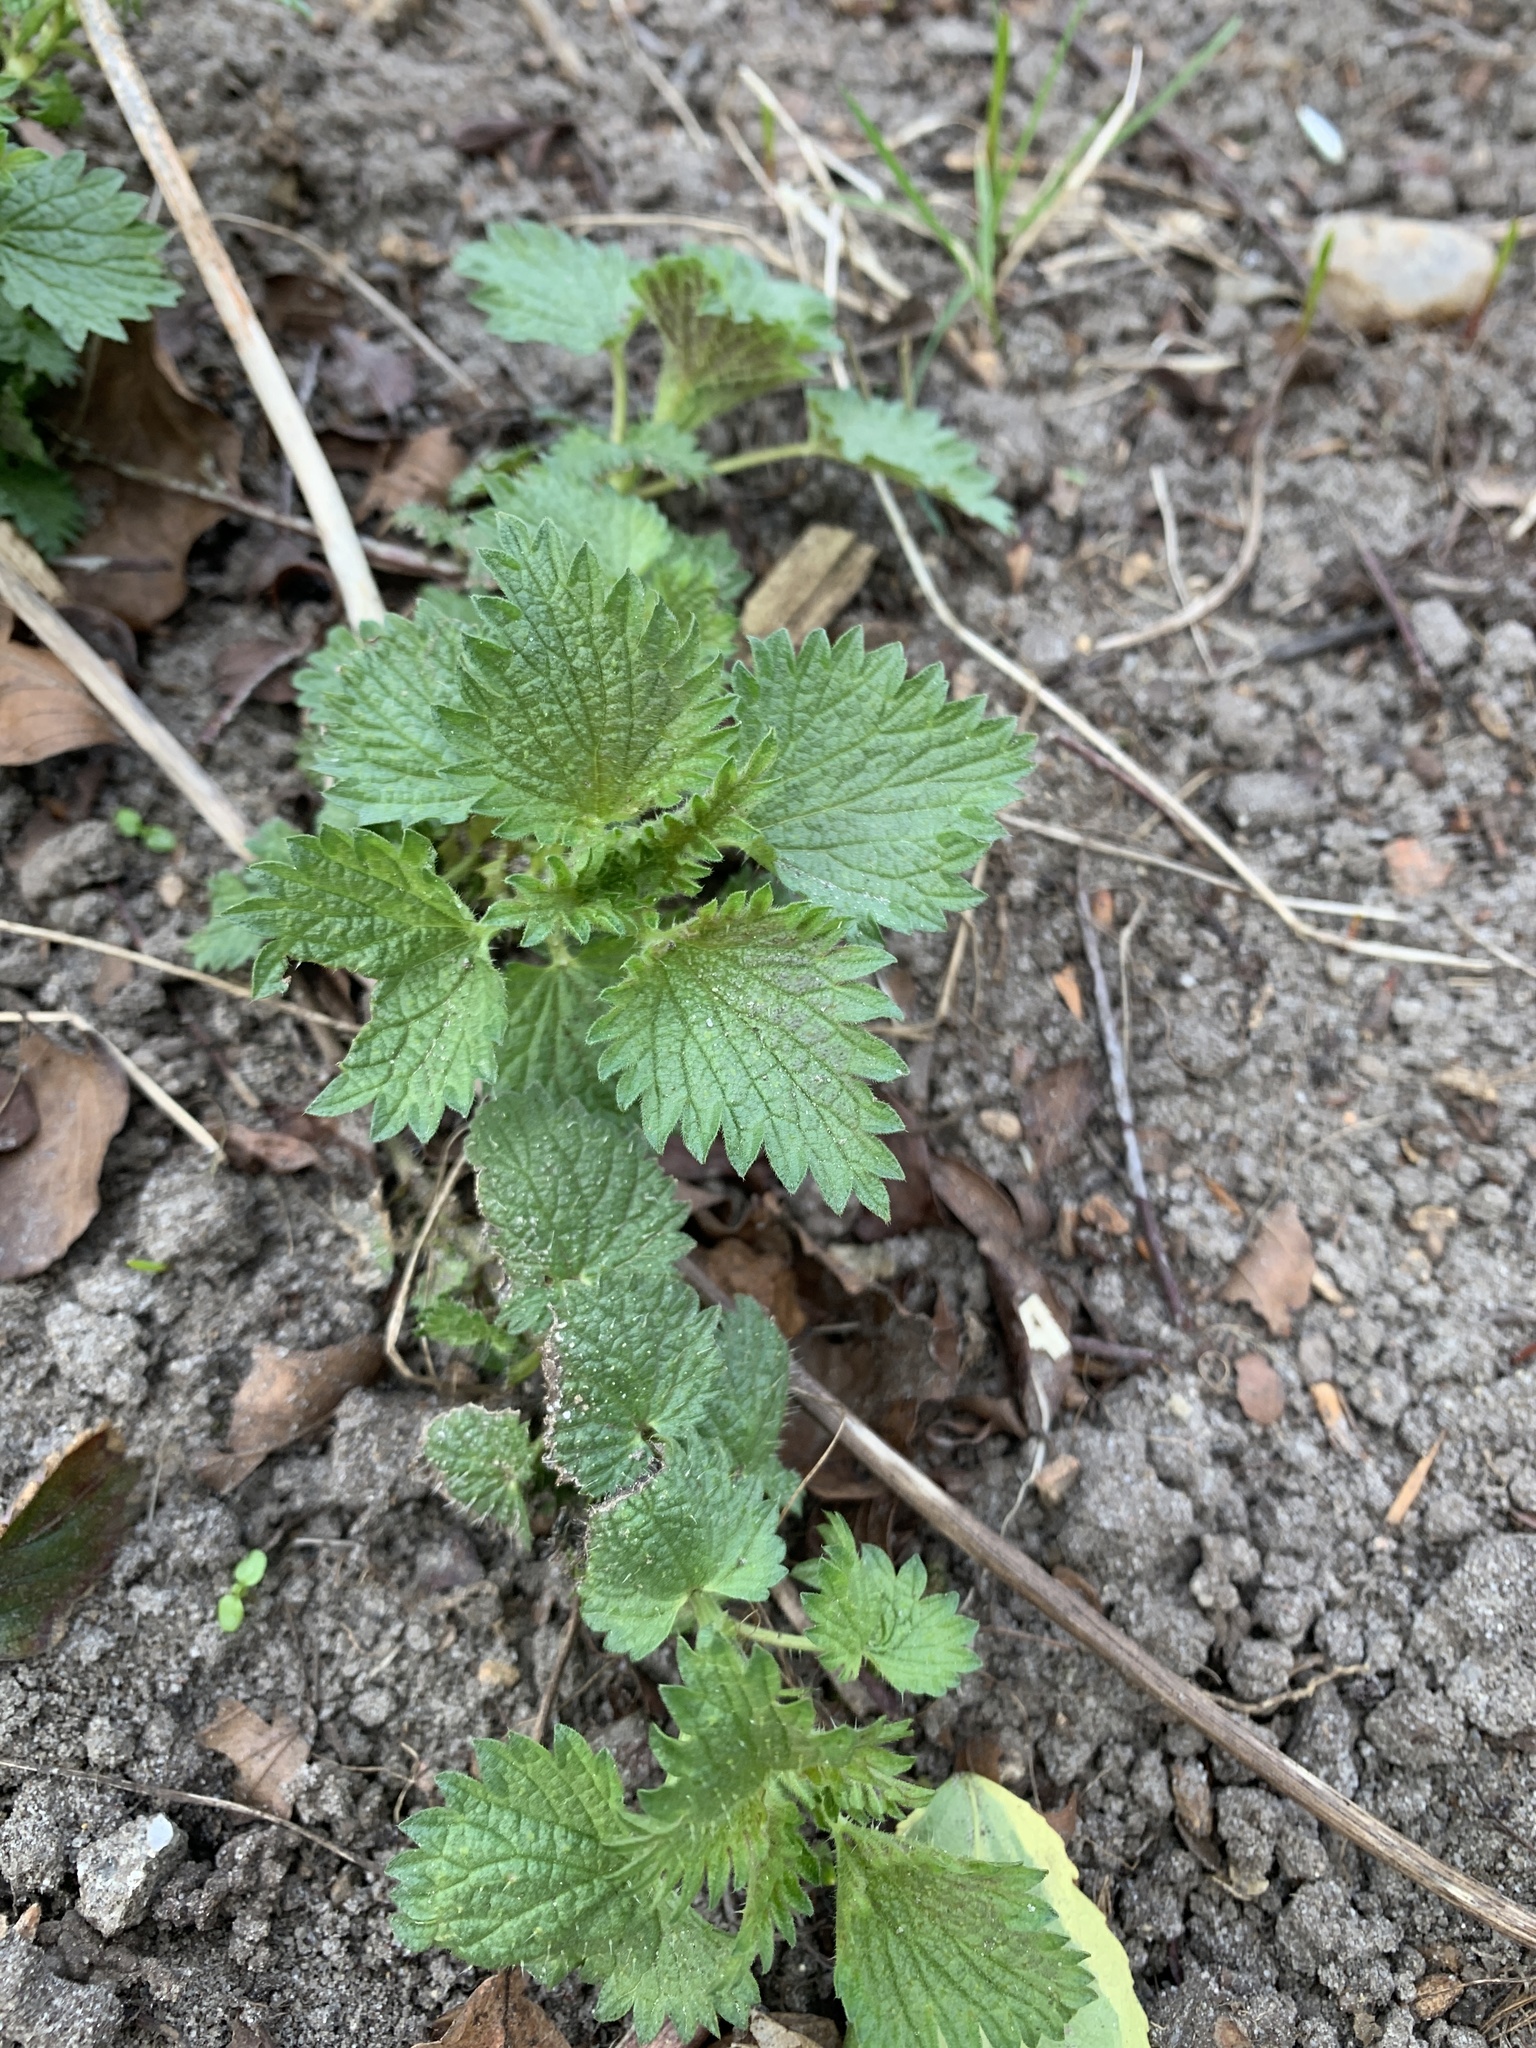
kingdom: Plantae
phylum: Tracheophyta
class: Magnoliopsida
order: Rosales
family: Urticaceae
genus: Urtica
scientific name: Urtica dioica
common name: Common nettle
